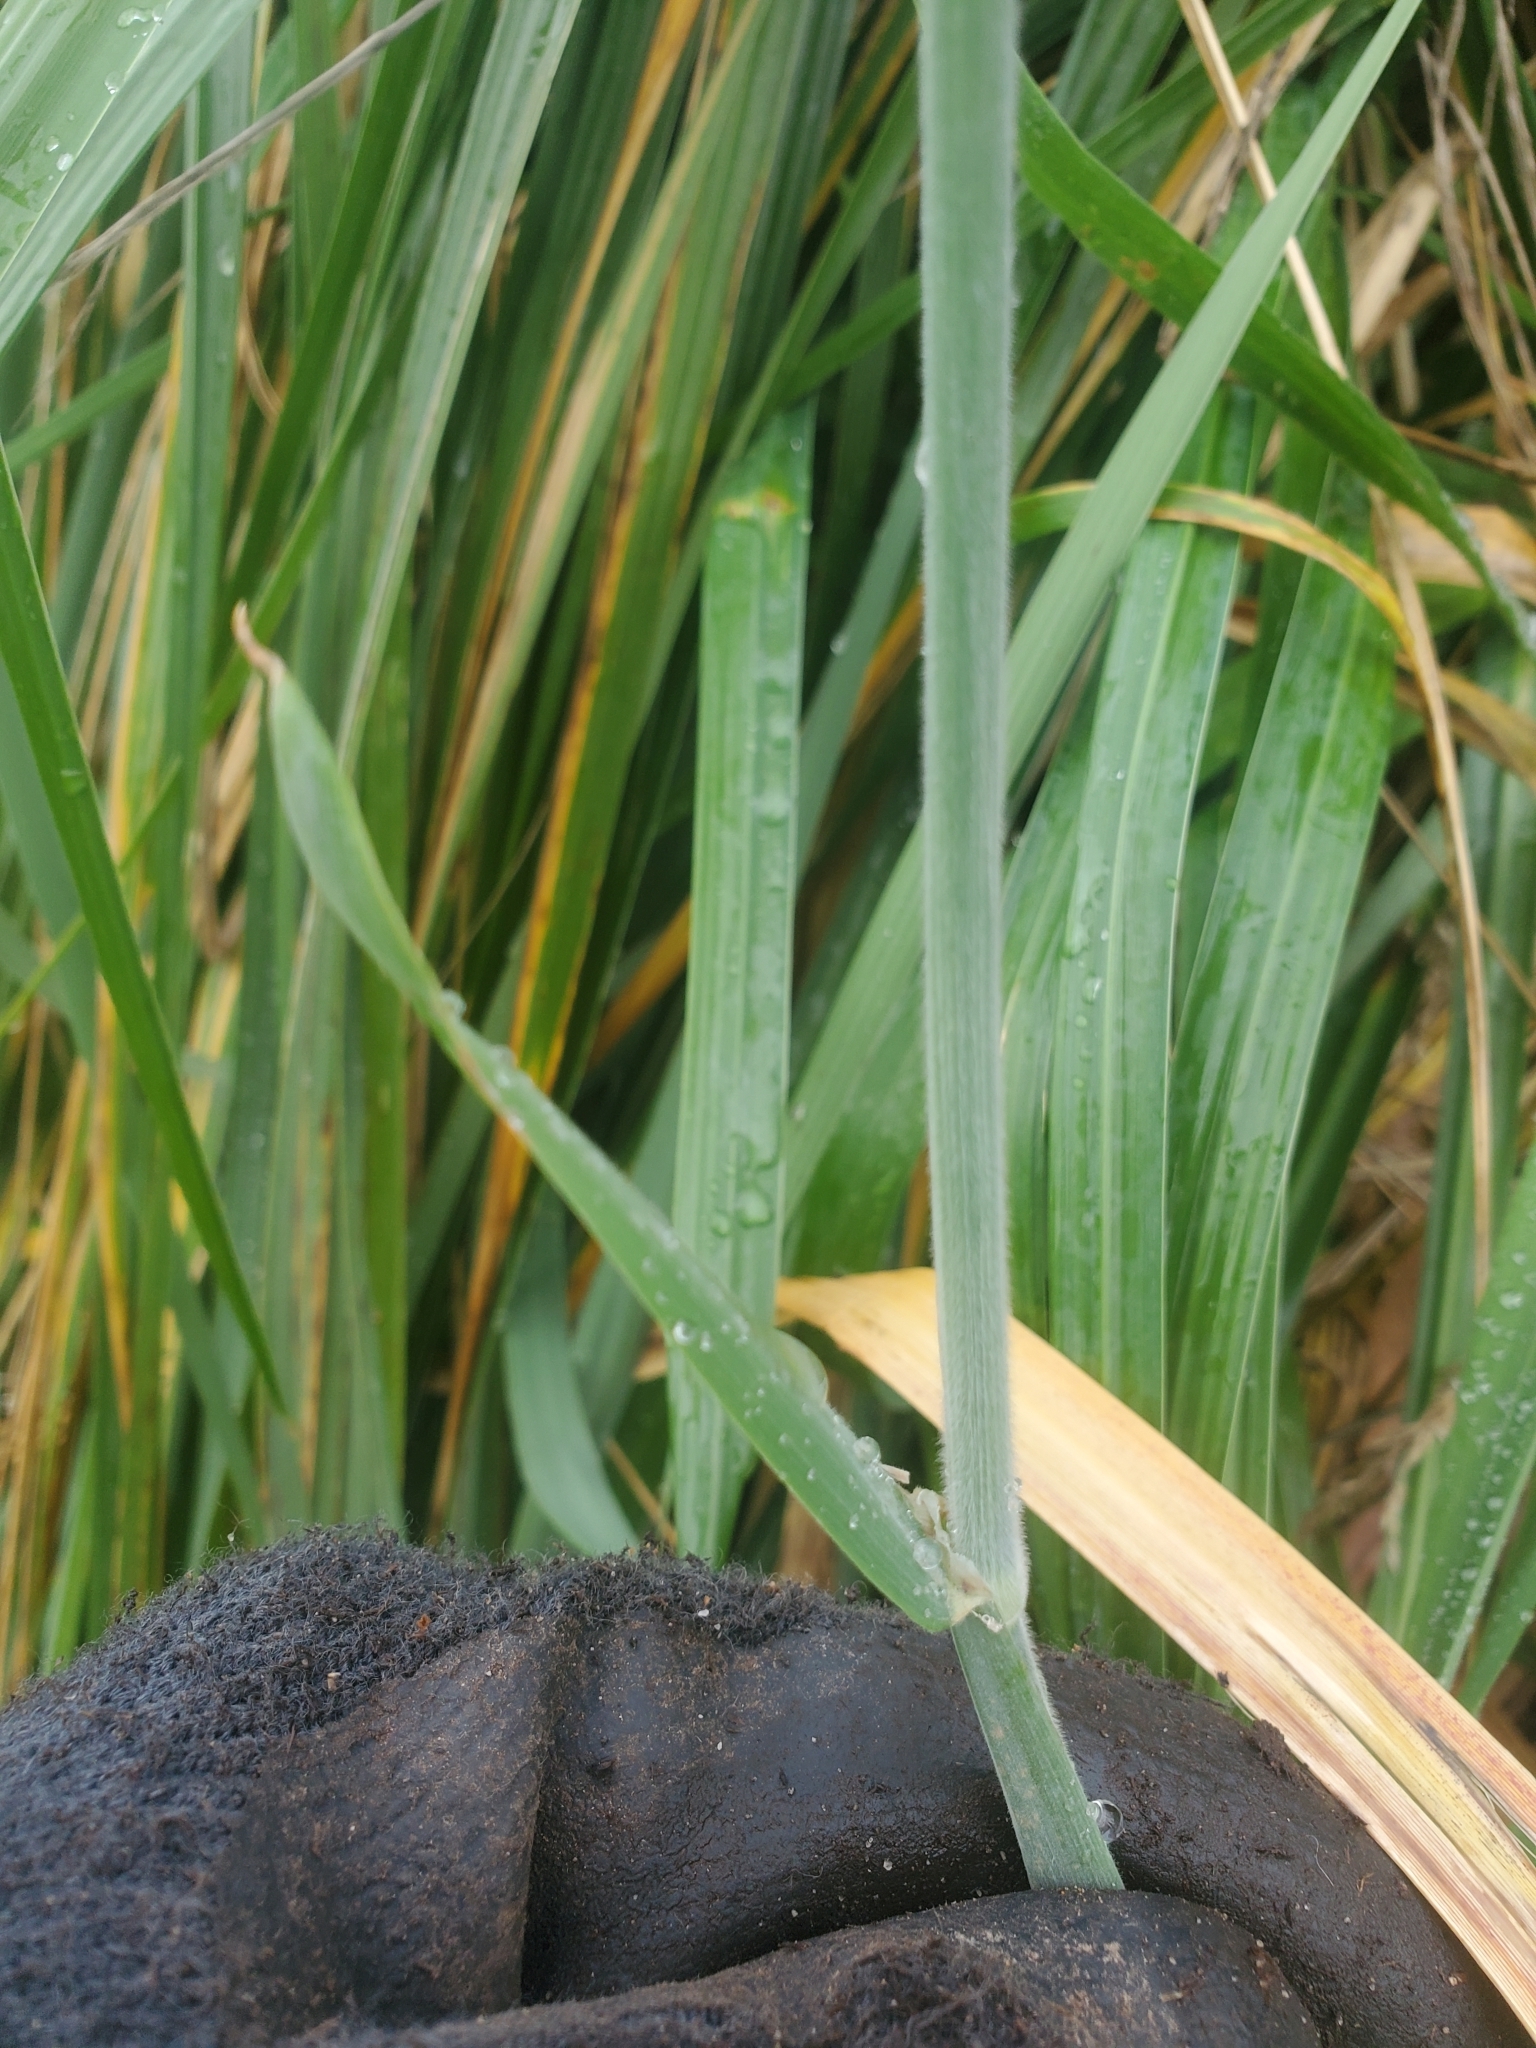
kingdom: Plantae
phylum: Tracheophyta
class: Liliopsida
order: Poales
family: Poaceae
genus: Holcus
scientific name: Holcus lanatus
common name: Yorkshire-fog
